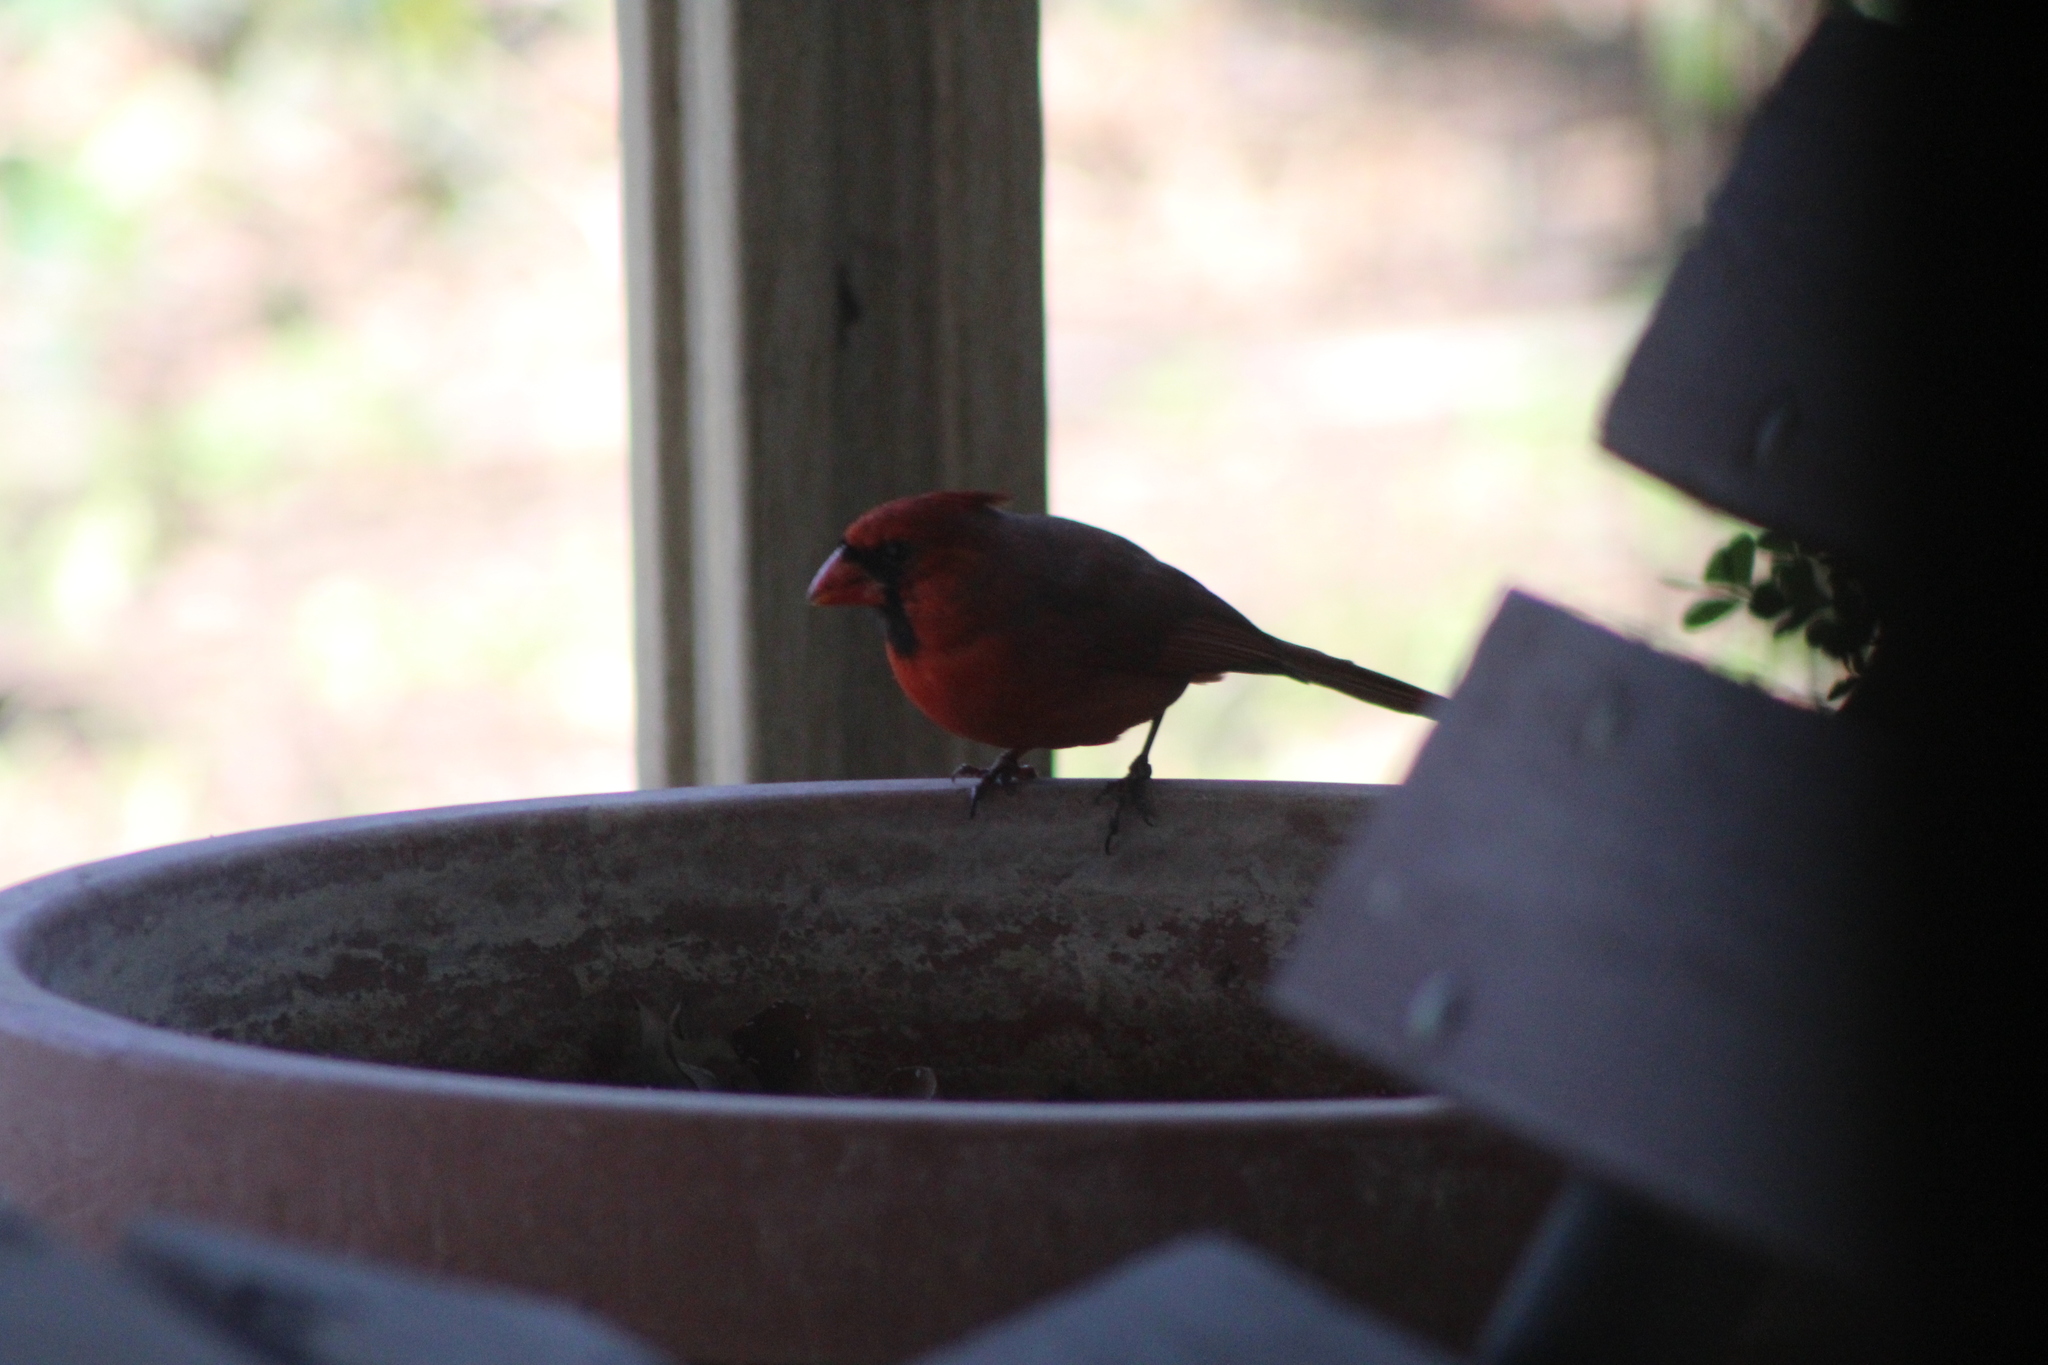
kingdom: Animalia
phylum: Chordata
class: Aves
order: Passeriformes
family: Cardinalidae
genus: Cardinalis
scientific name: Cardinalis cardinalis
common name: Northern cardinal
